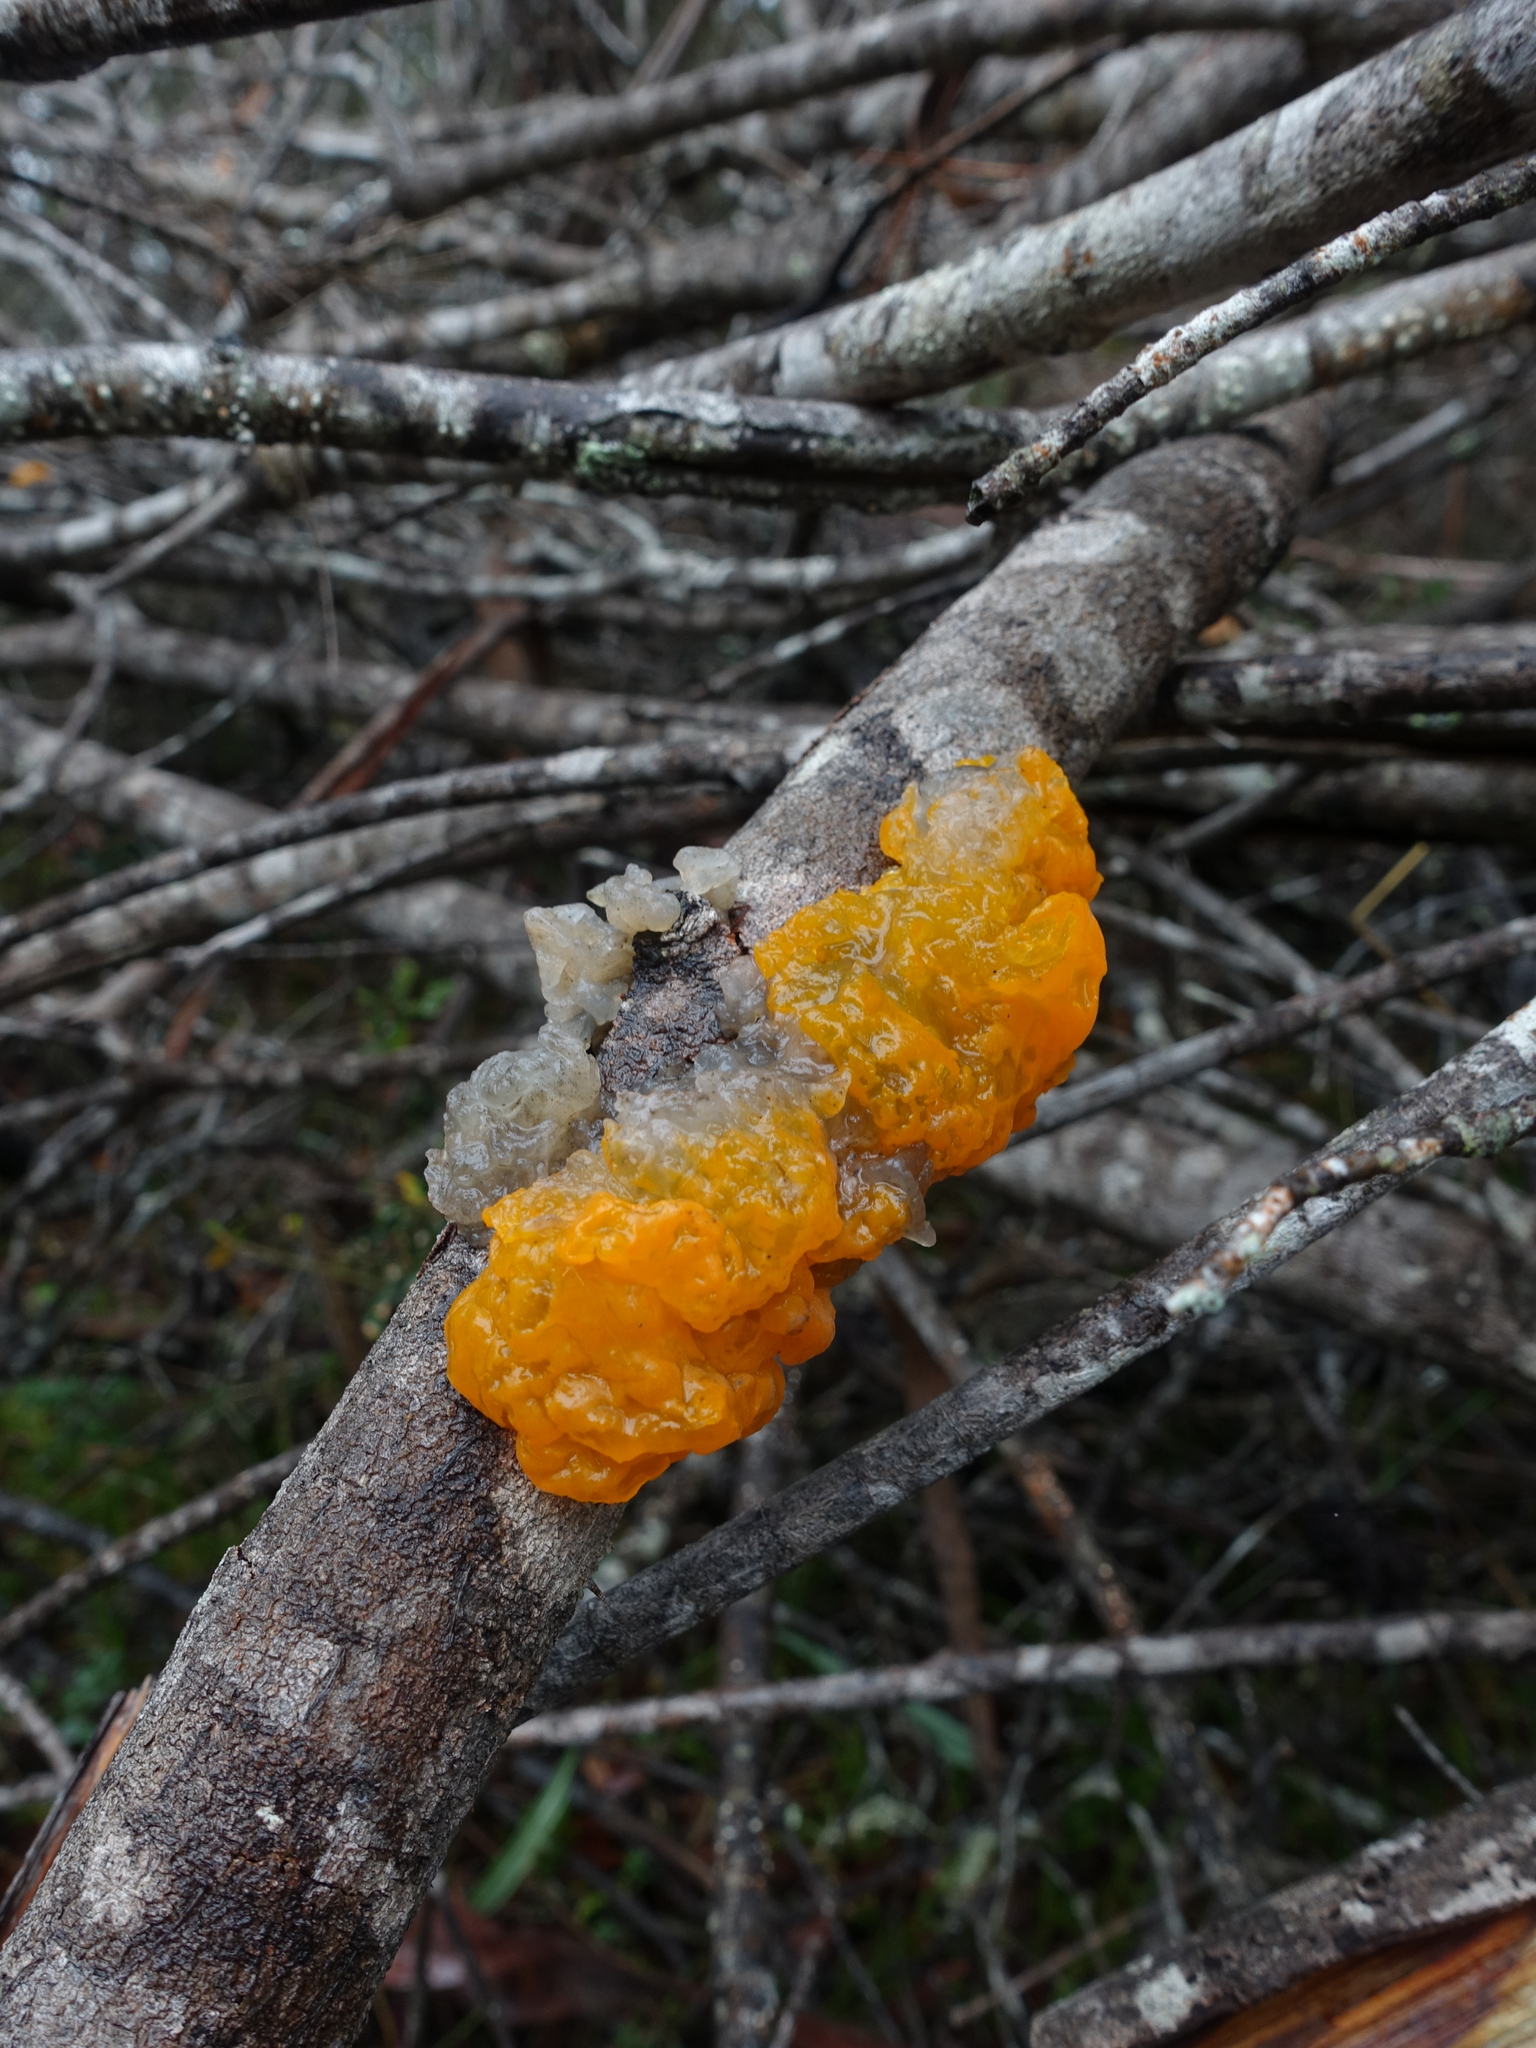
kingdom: Fungi
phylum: Basidiomycota
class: Tremellomycetes
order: Tremellales
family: Tremellaceae
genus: Tremella
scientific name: Tremella mesenterica
